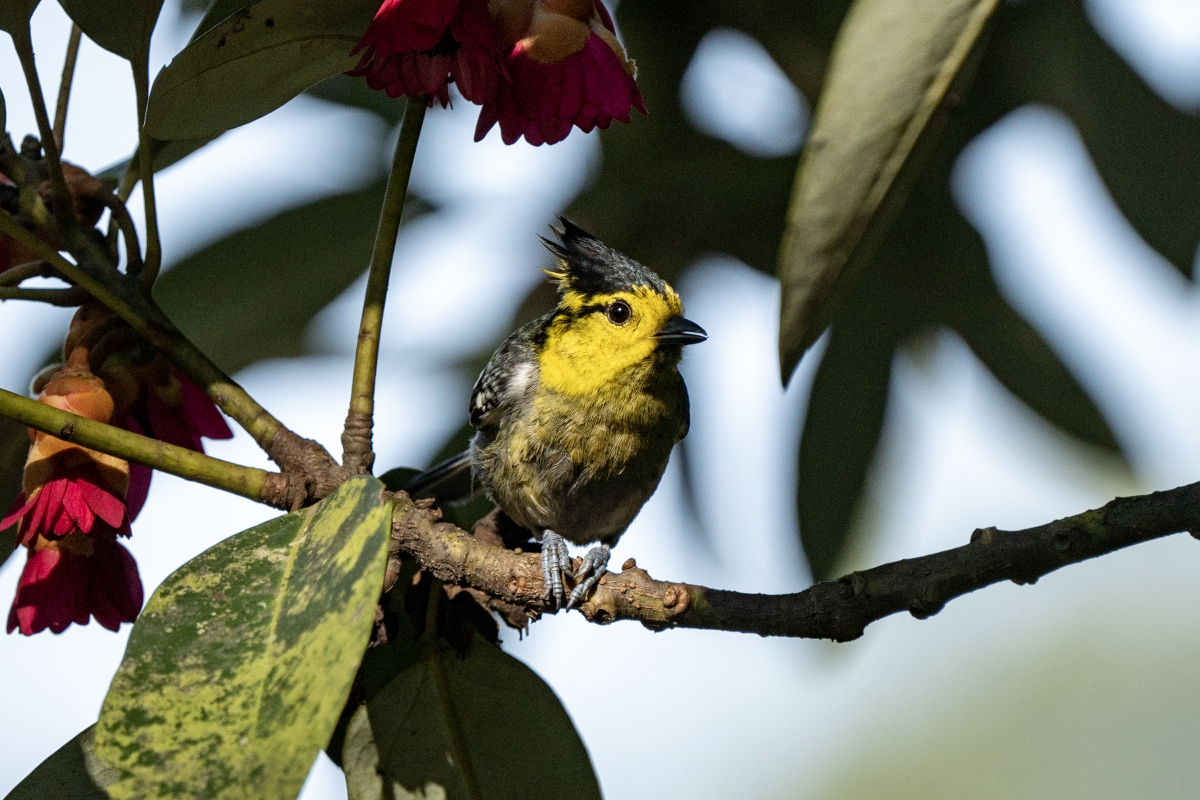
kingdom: Animalia
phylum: Chordata
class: Aves
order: Passeriformes
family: Paridae
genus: Parus
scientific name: Parus spilonotus
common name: Yellow-cheeked tit
